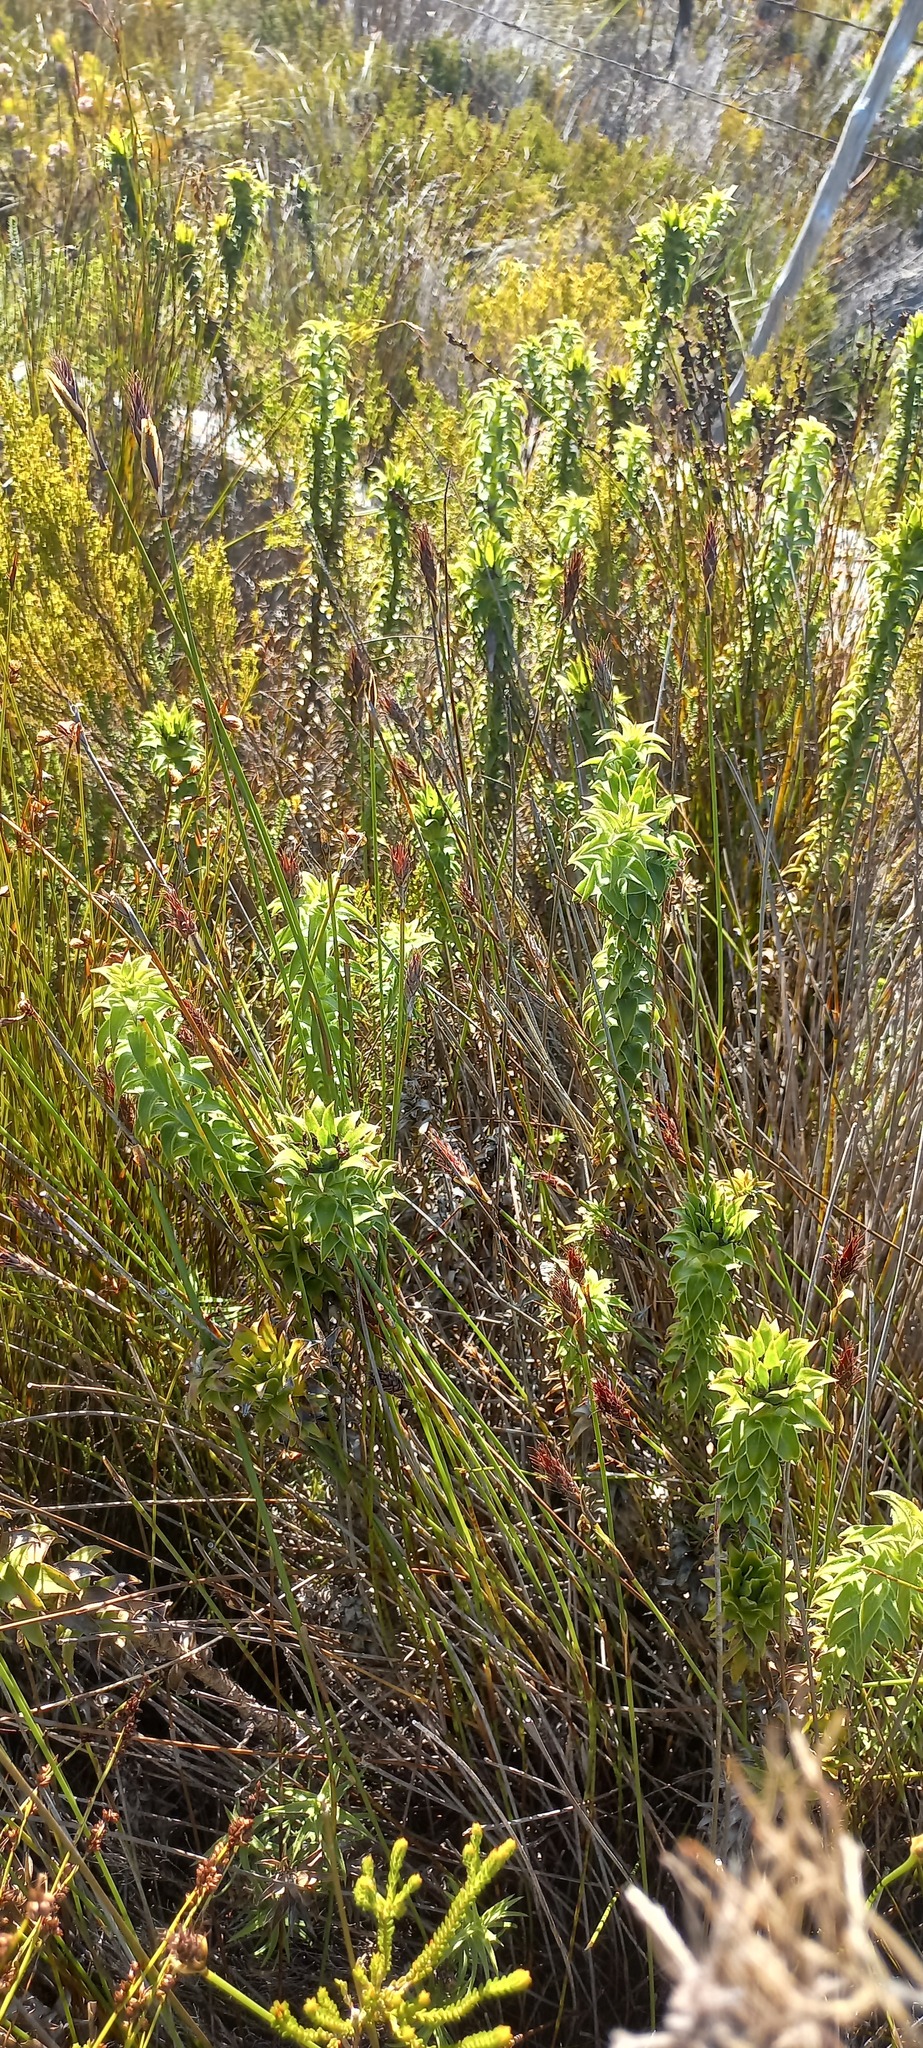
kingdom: Plantae
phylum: Tracheophyta
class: Magnoliopsida
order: Asterales
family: Asteraceae
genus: Oedera
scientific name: Oedera imbricata
